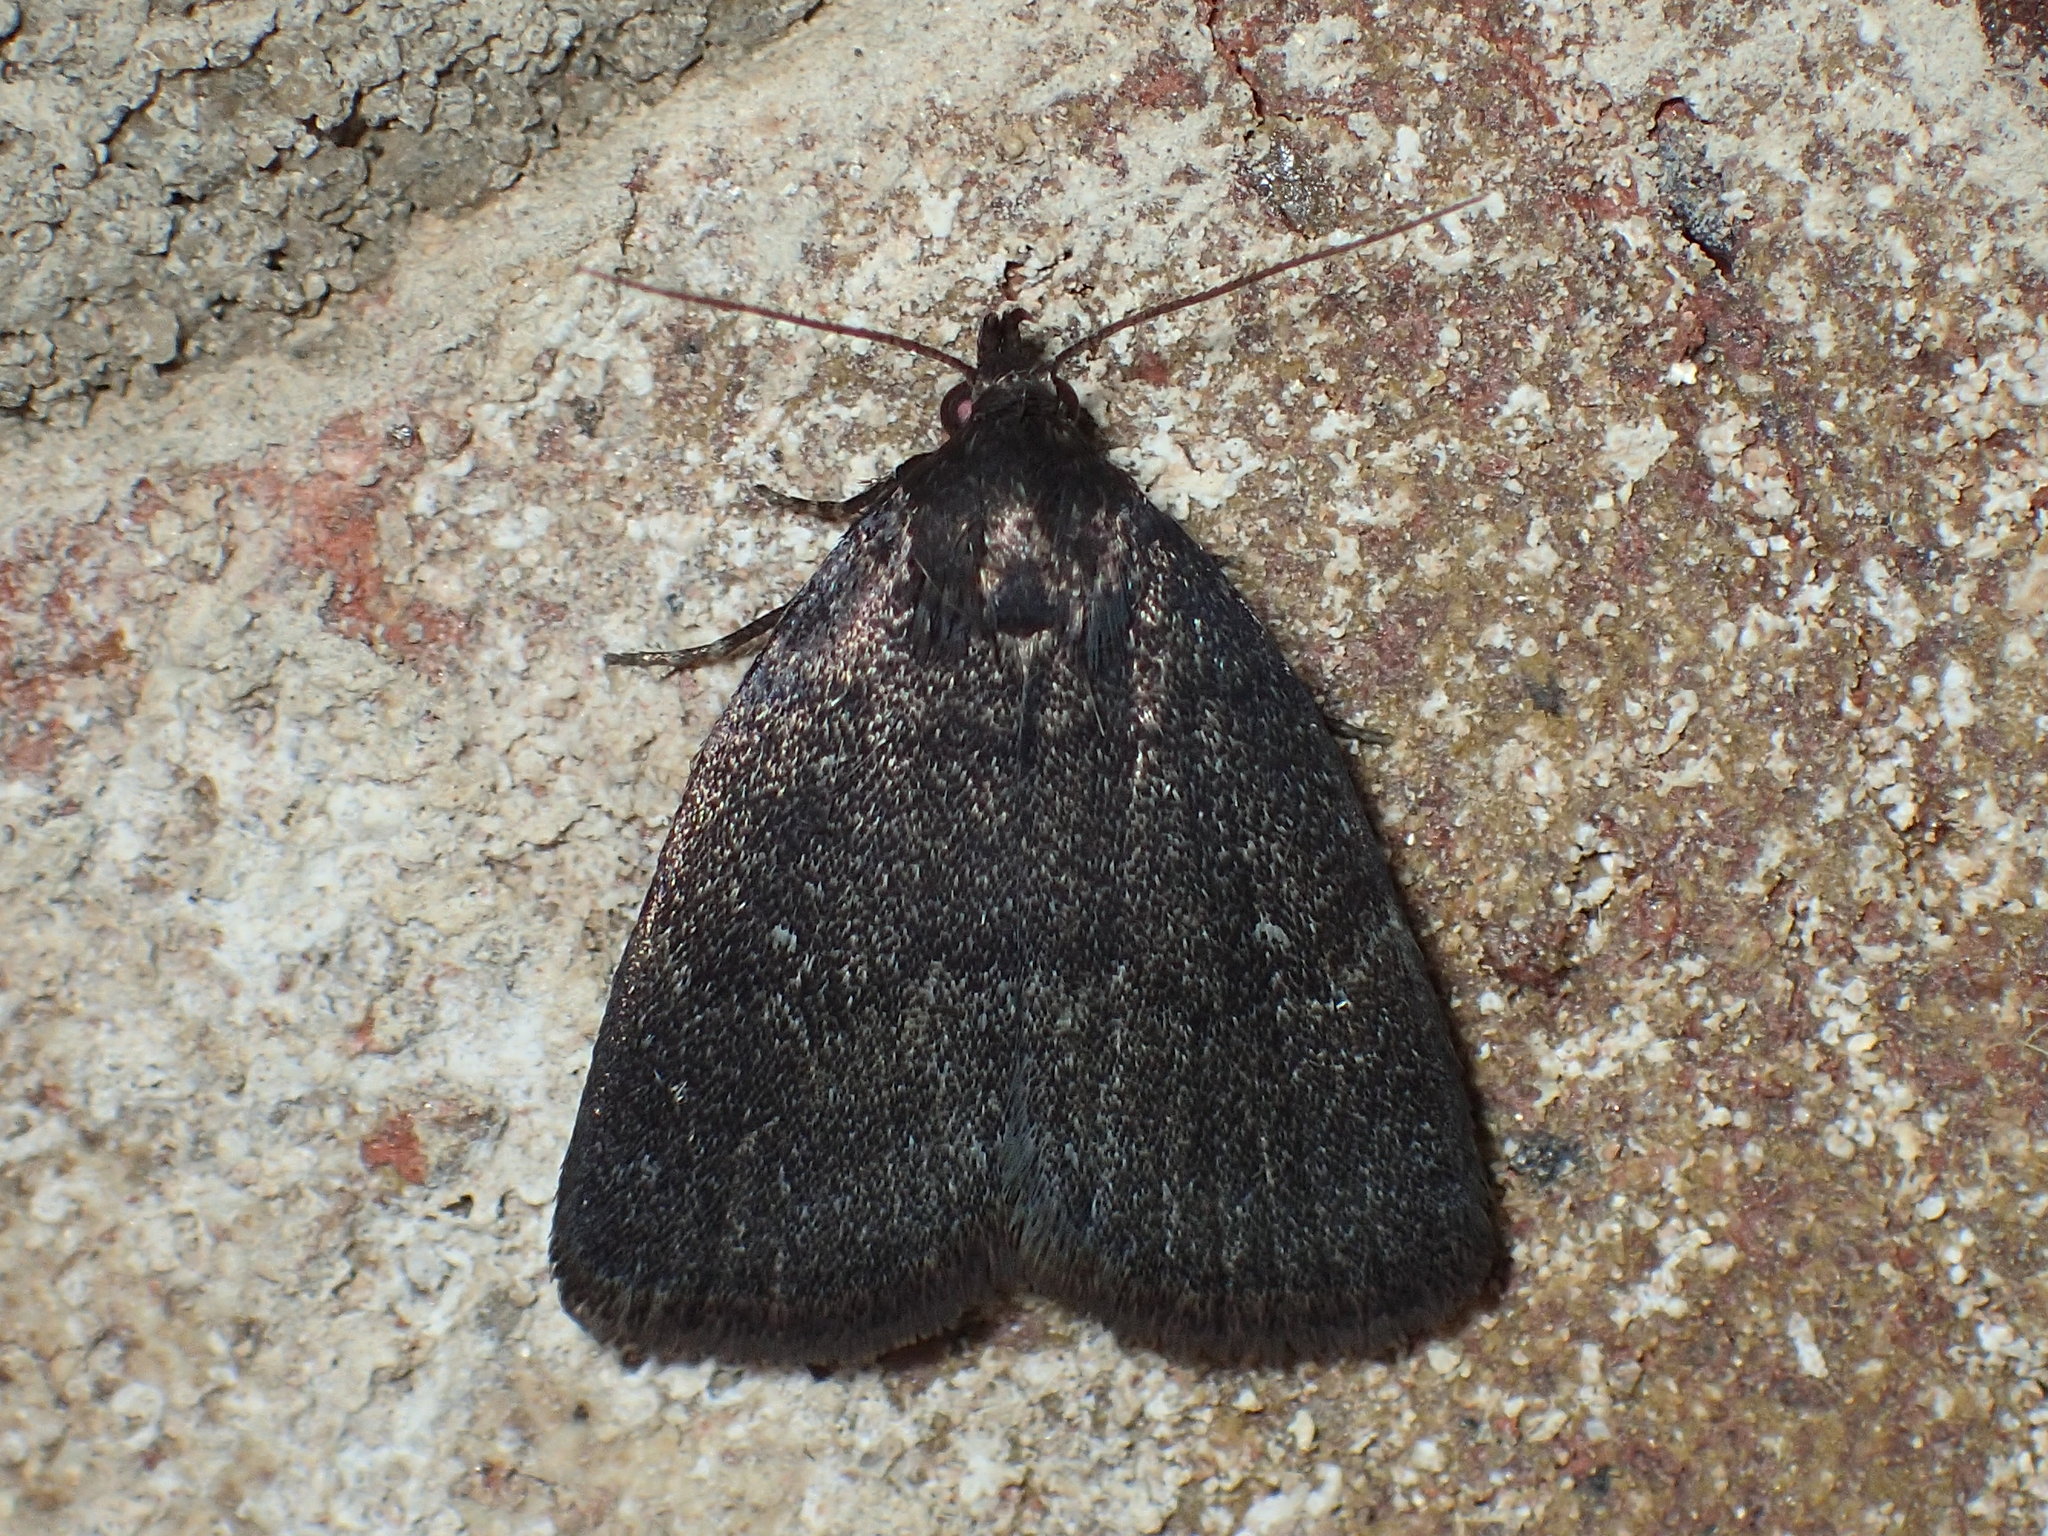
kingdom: Animalia
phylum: Arthropoda
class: Insecta
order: Lepidoptera
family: Erebidae
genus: Idia
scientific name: Idia rotundalis
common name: Rotund idia moth
